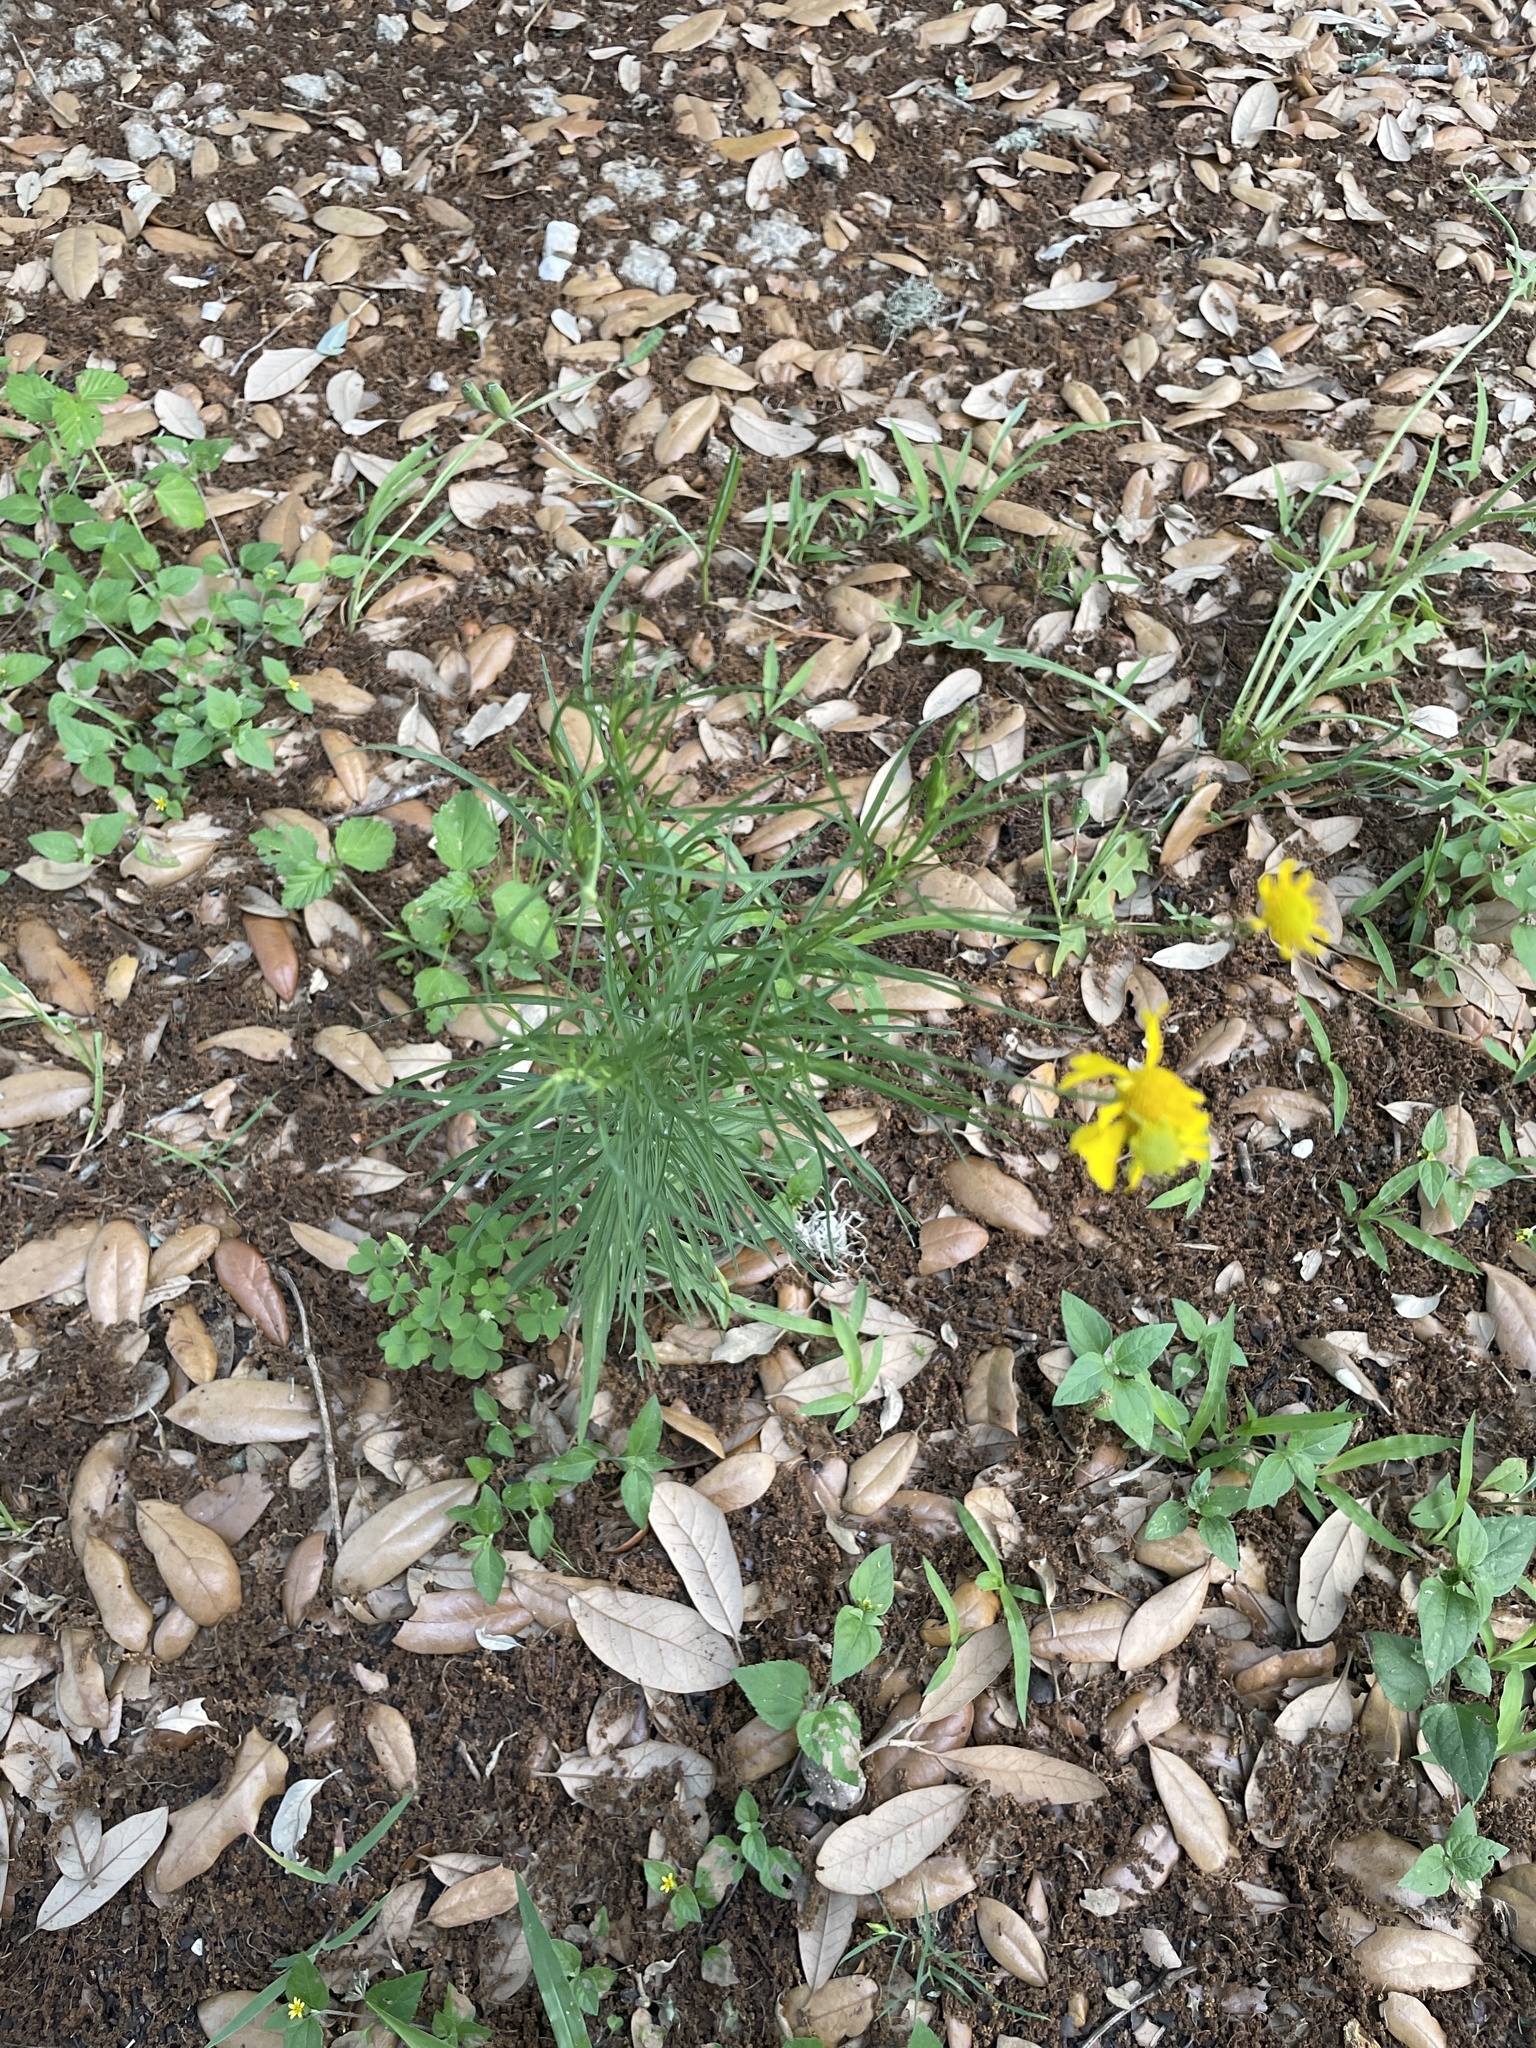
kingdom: Plantae
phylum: Tracheophyta
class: Magnoliopsida
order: Asterales
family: Asteraceae
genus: Helenium
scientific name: Helenium amarum
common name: Bitter sneezeweed
